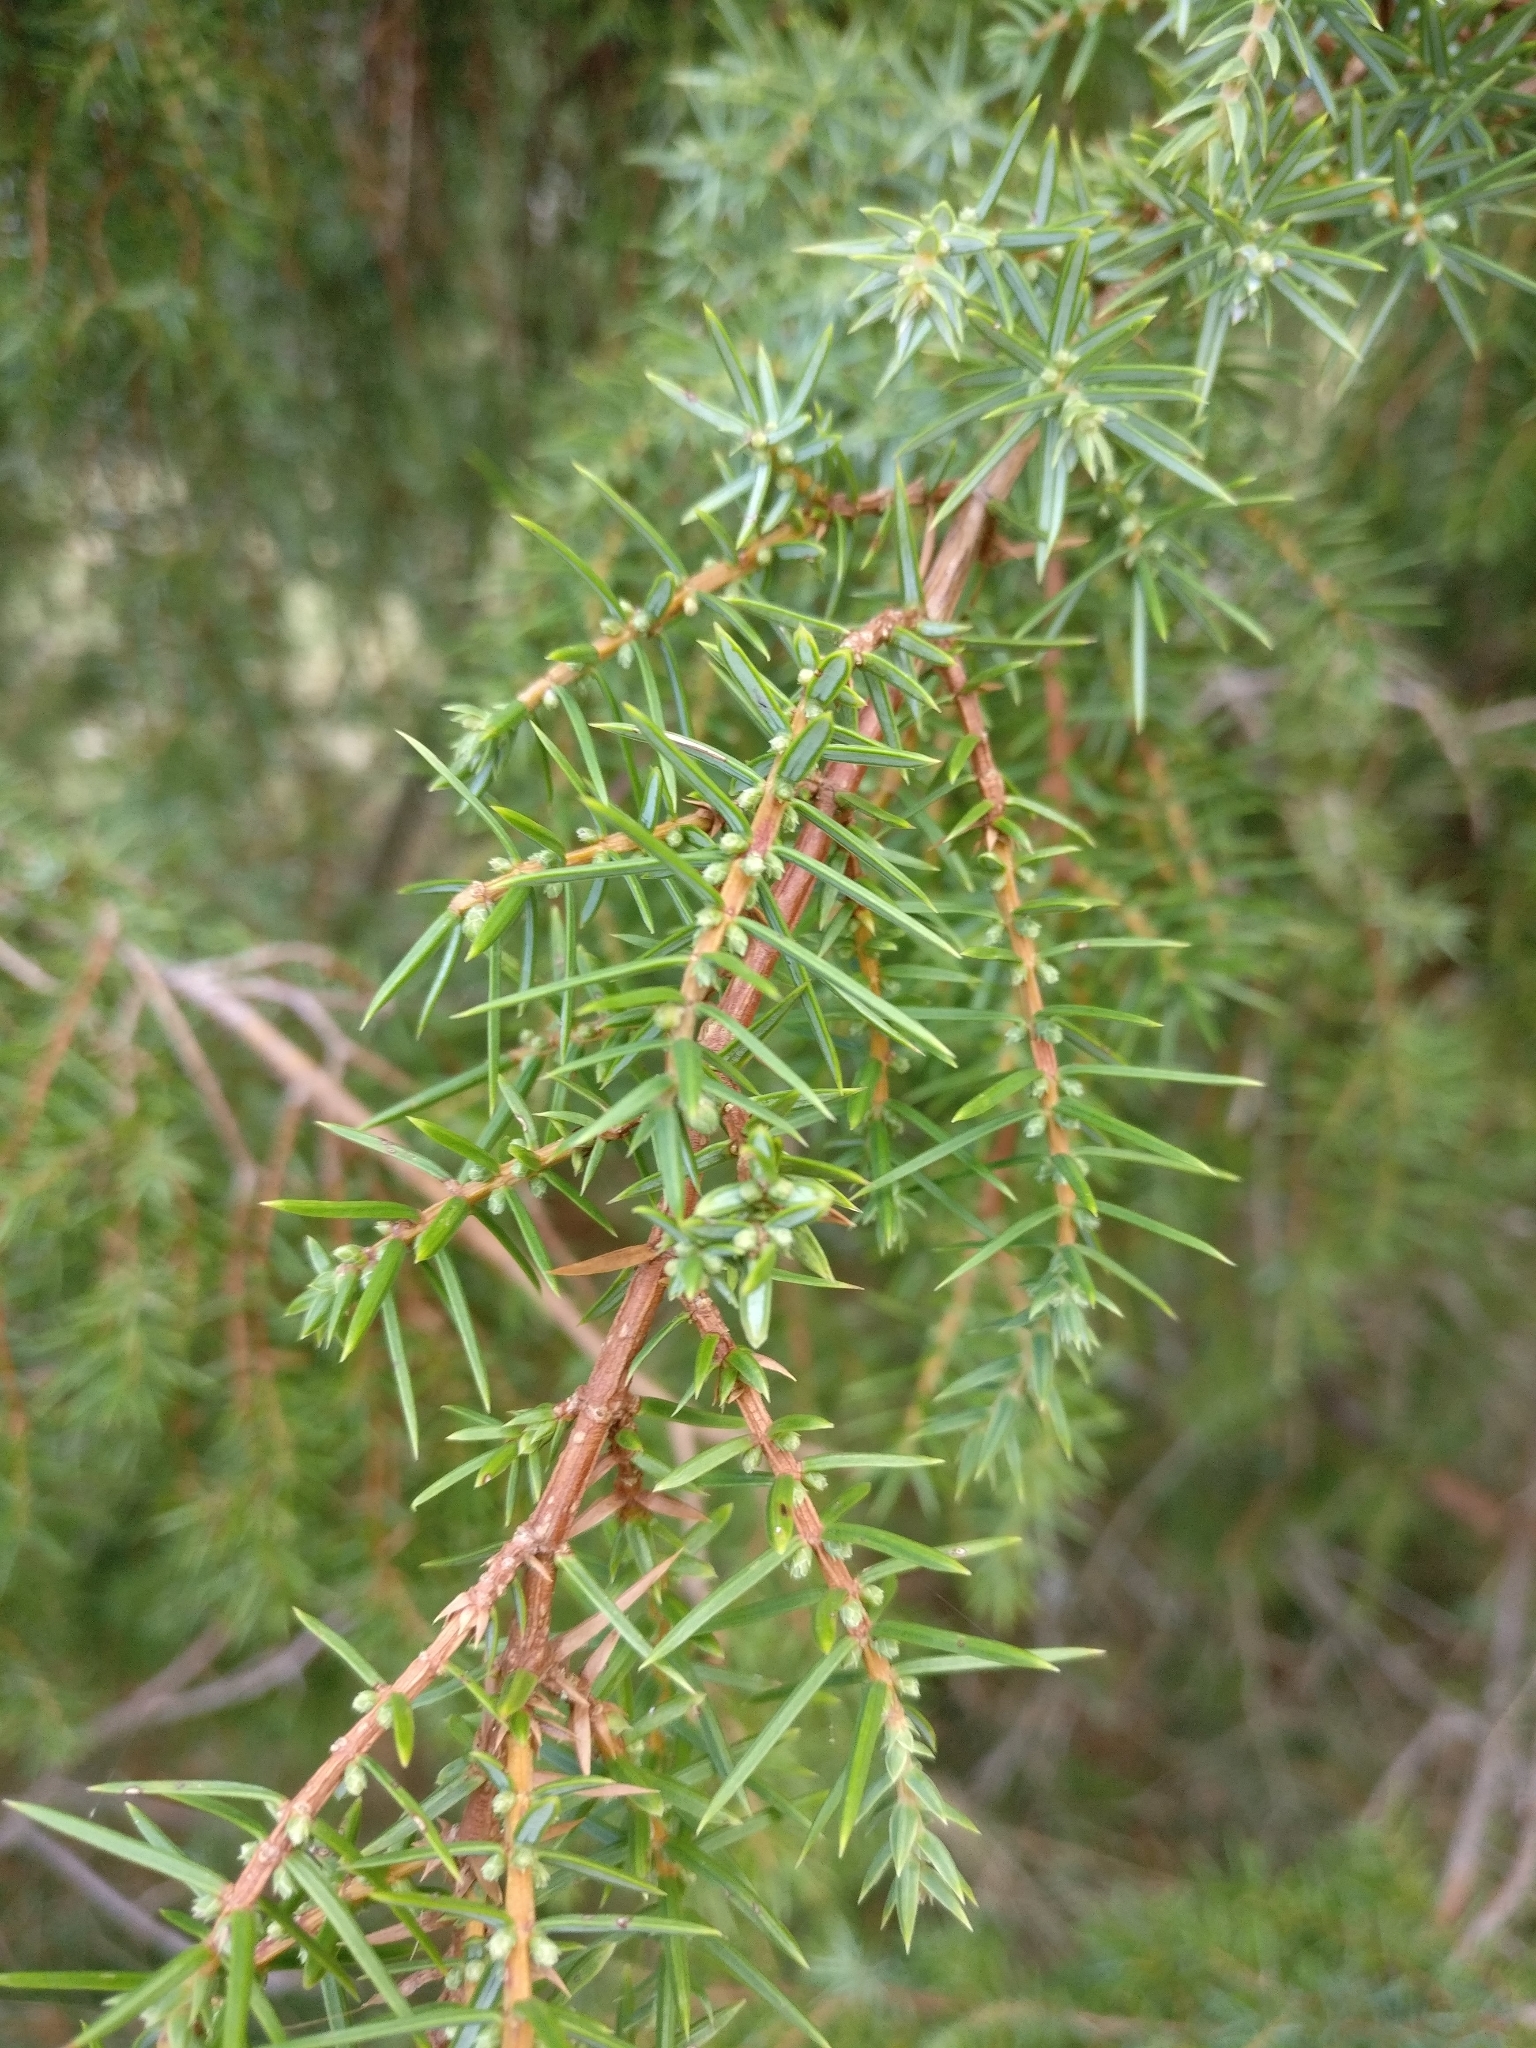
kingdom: Plantae
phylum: Tracheophyta
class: Pinopsida
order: Pinales
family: Cupressaceae
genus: Juniperus
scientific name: Juniperus communis
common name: Common juniper
